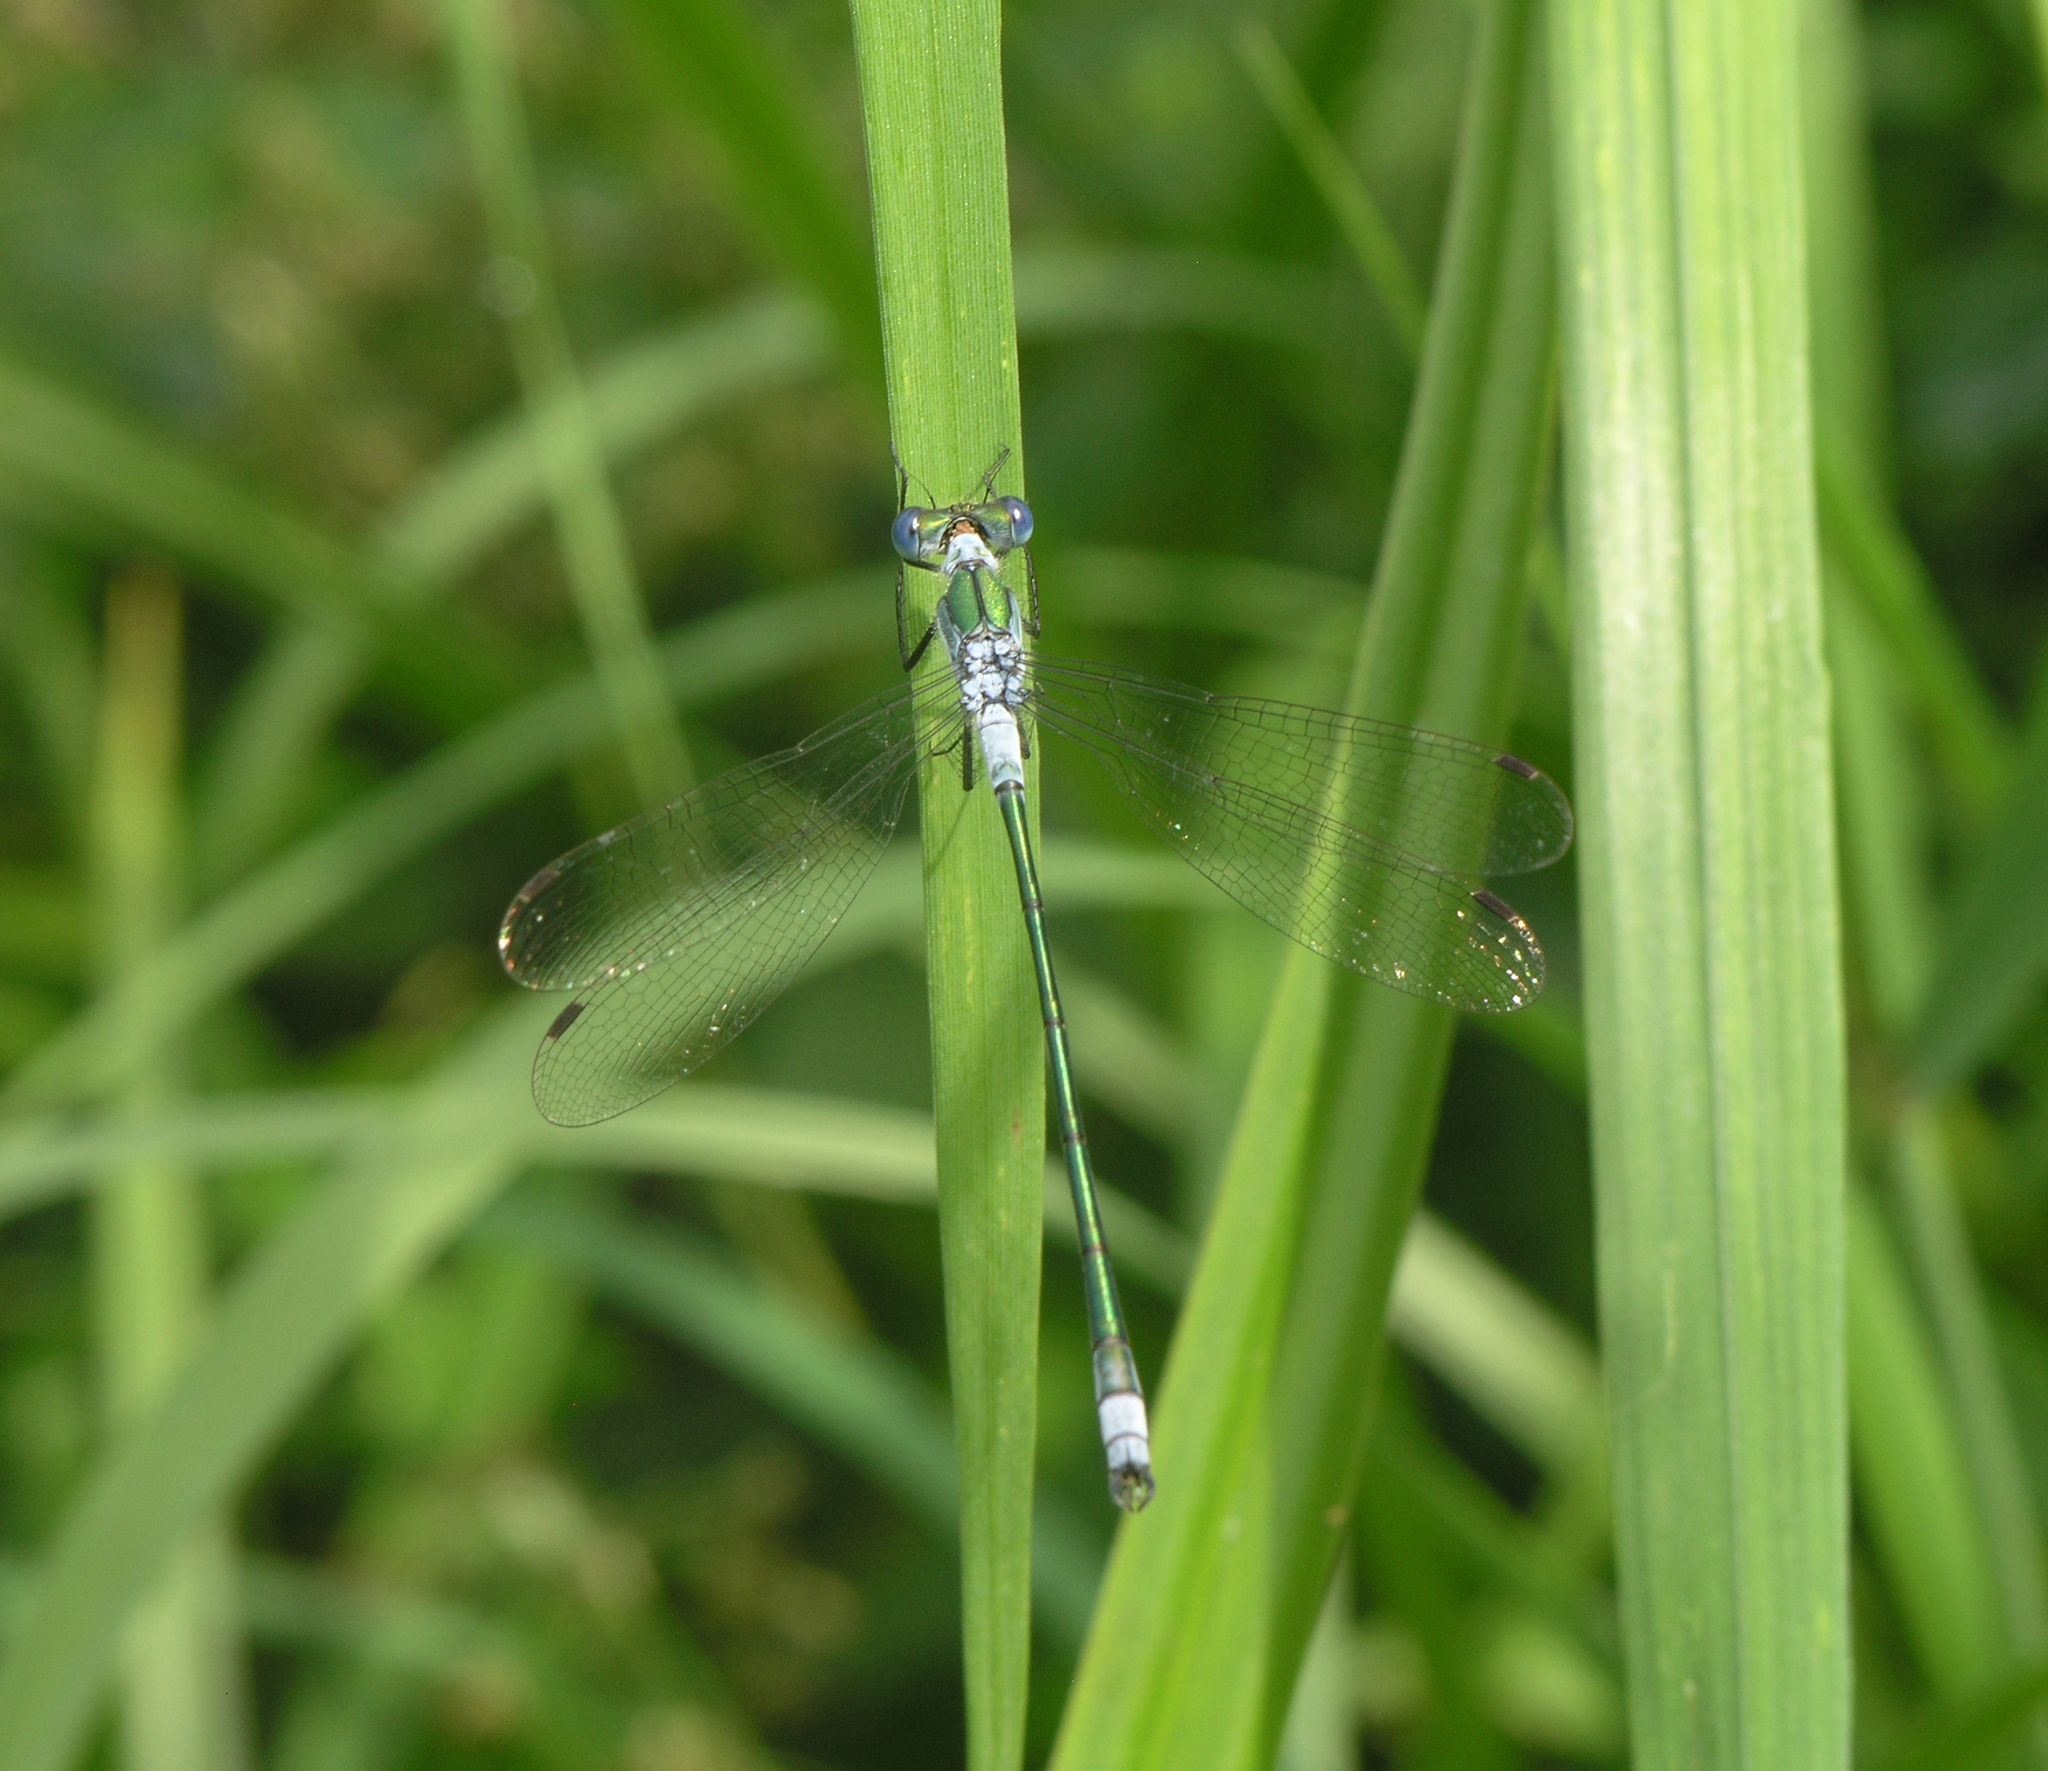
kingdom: Animalia
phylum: Arthropoda
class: Insecta
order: Odonata
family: Lestidae
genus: Lestes
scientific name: Lestes sponsa
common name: Common spreadwing
